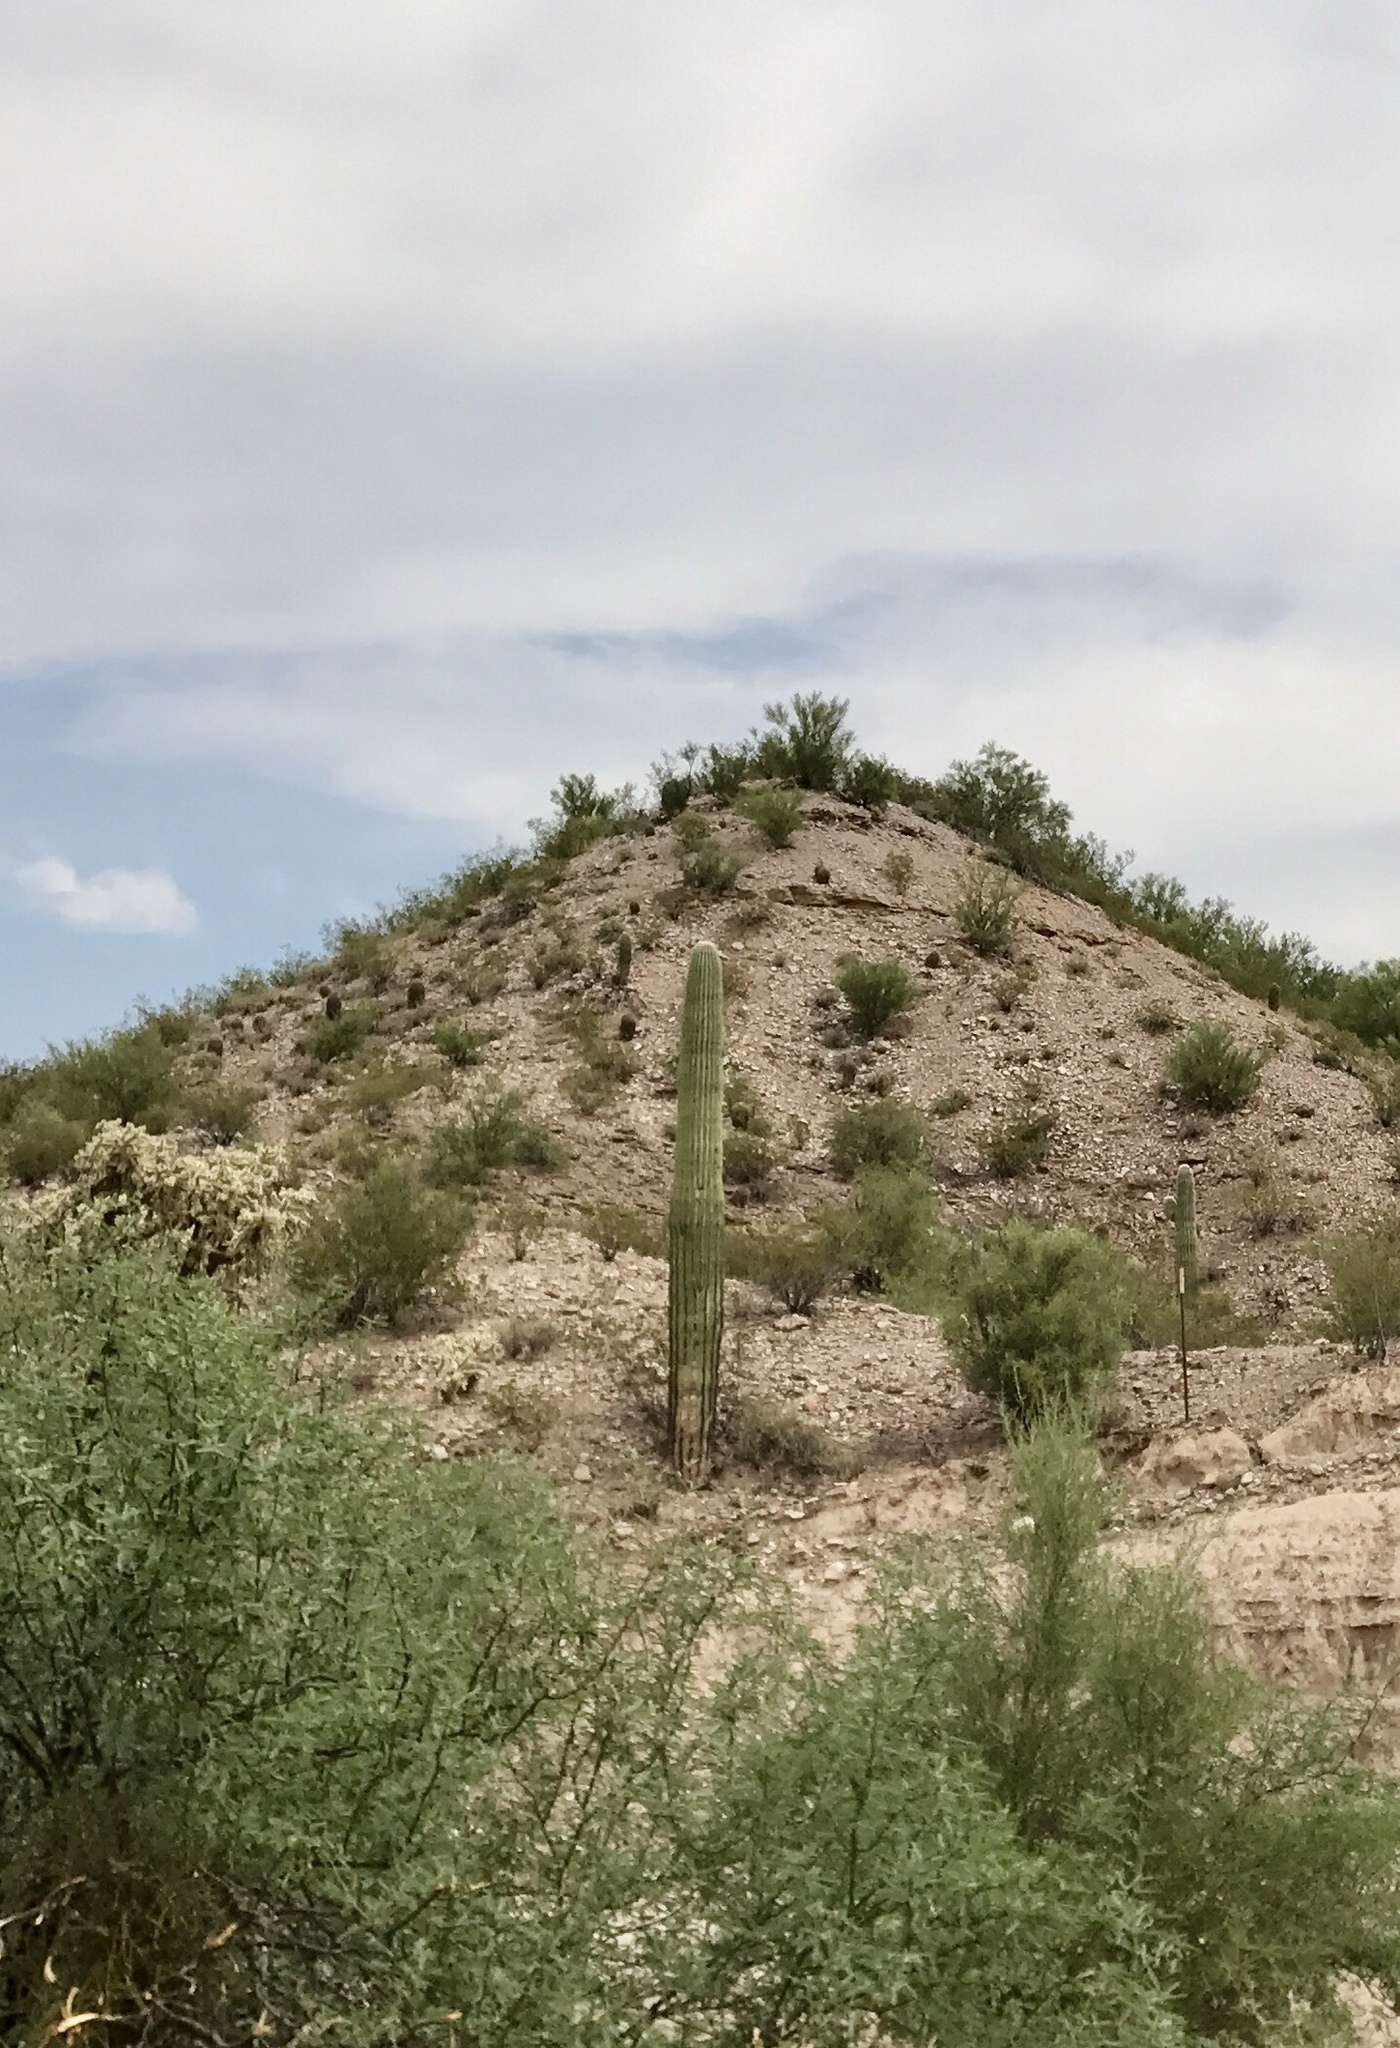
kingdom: Plantae
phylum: Tracheophyta
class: Magnoliopsida
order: Caryophyllales
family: Cactaceae
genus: Carnegiea
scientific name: Carnegiea gigantea
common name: Saguaro
